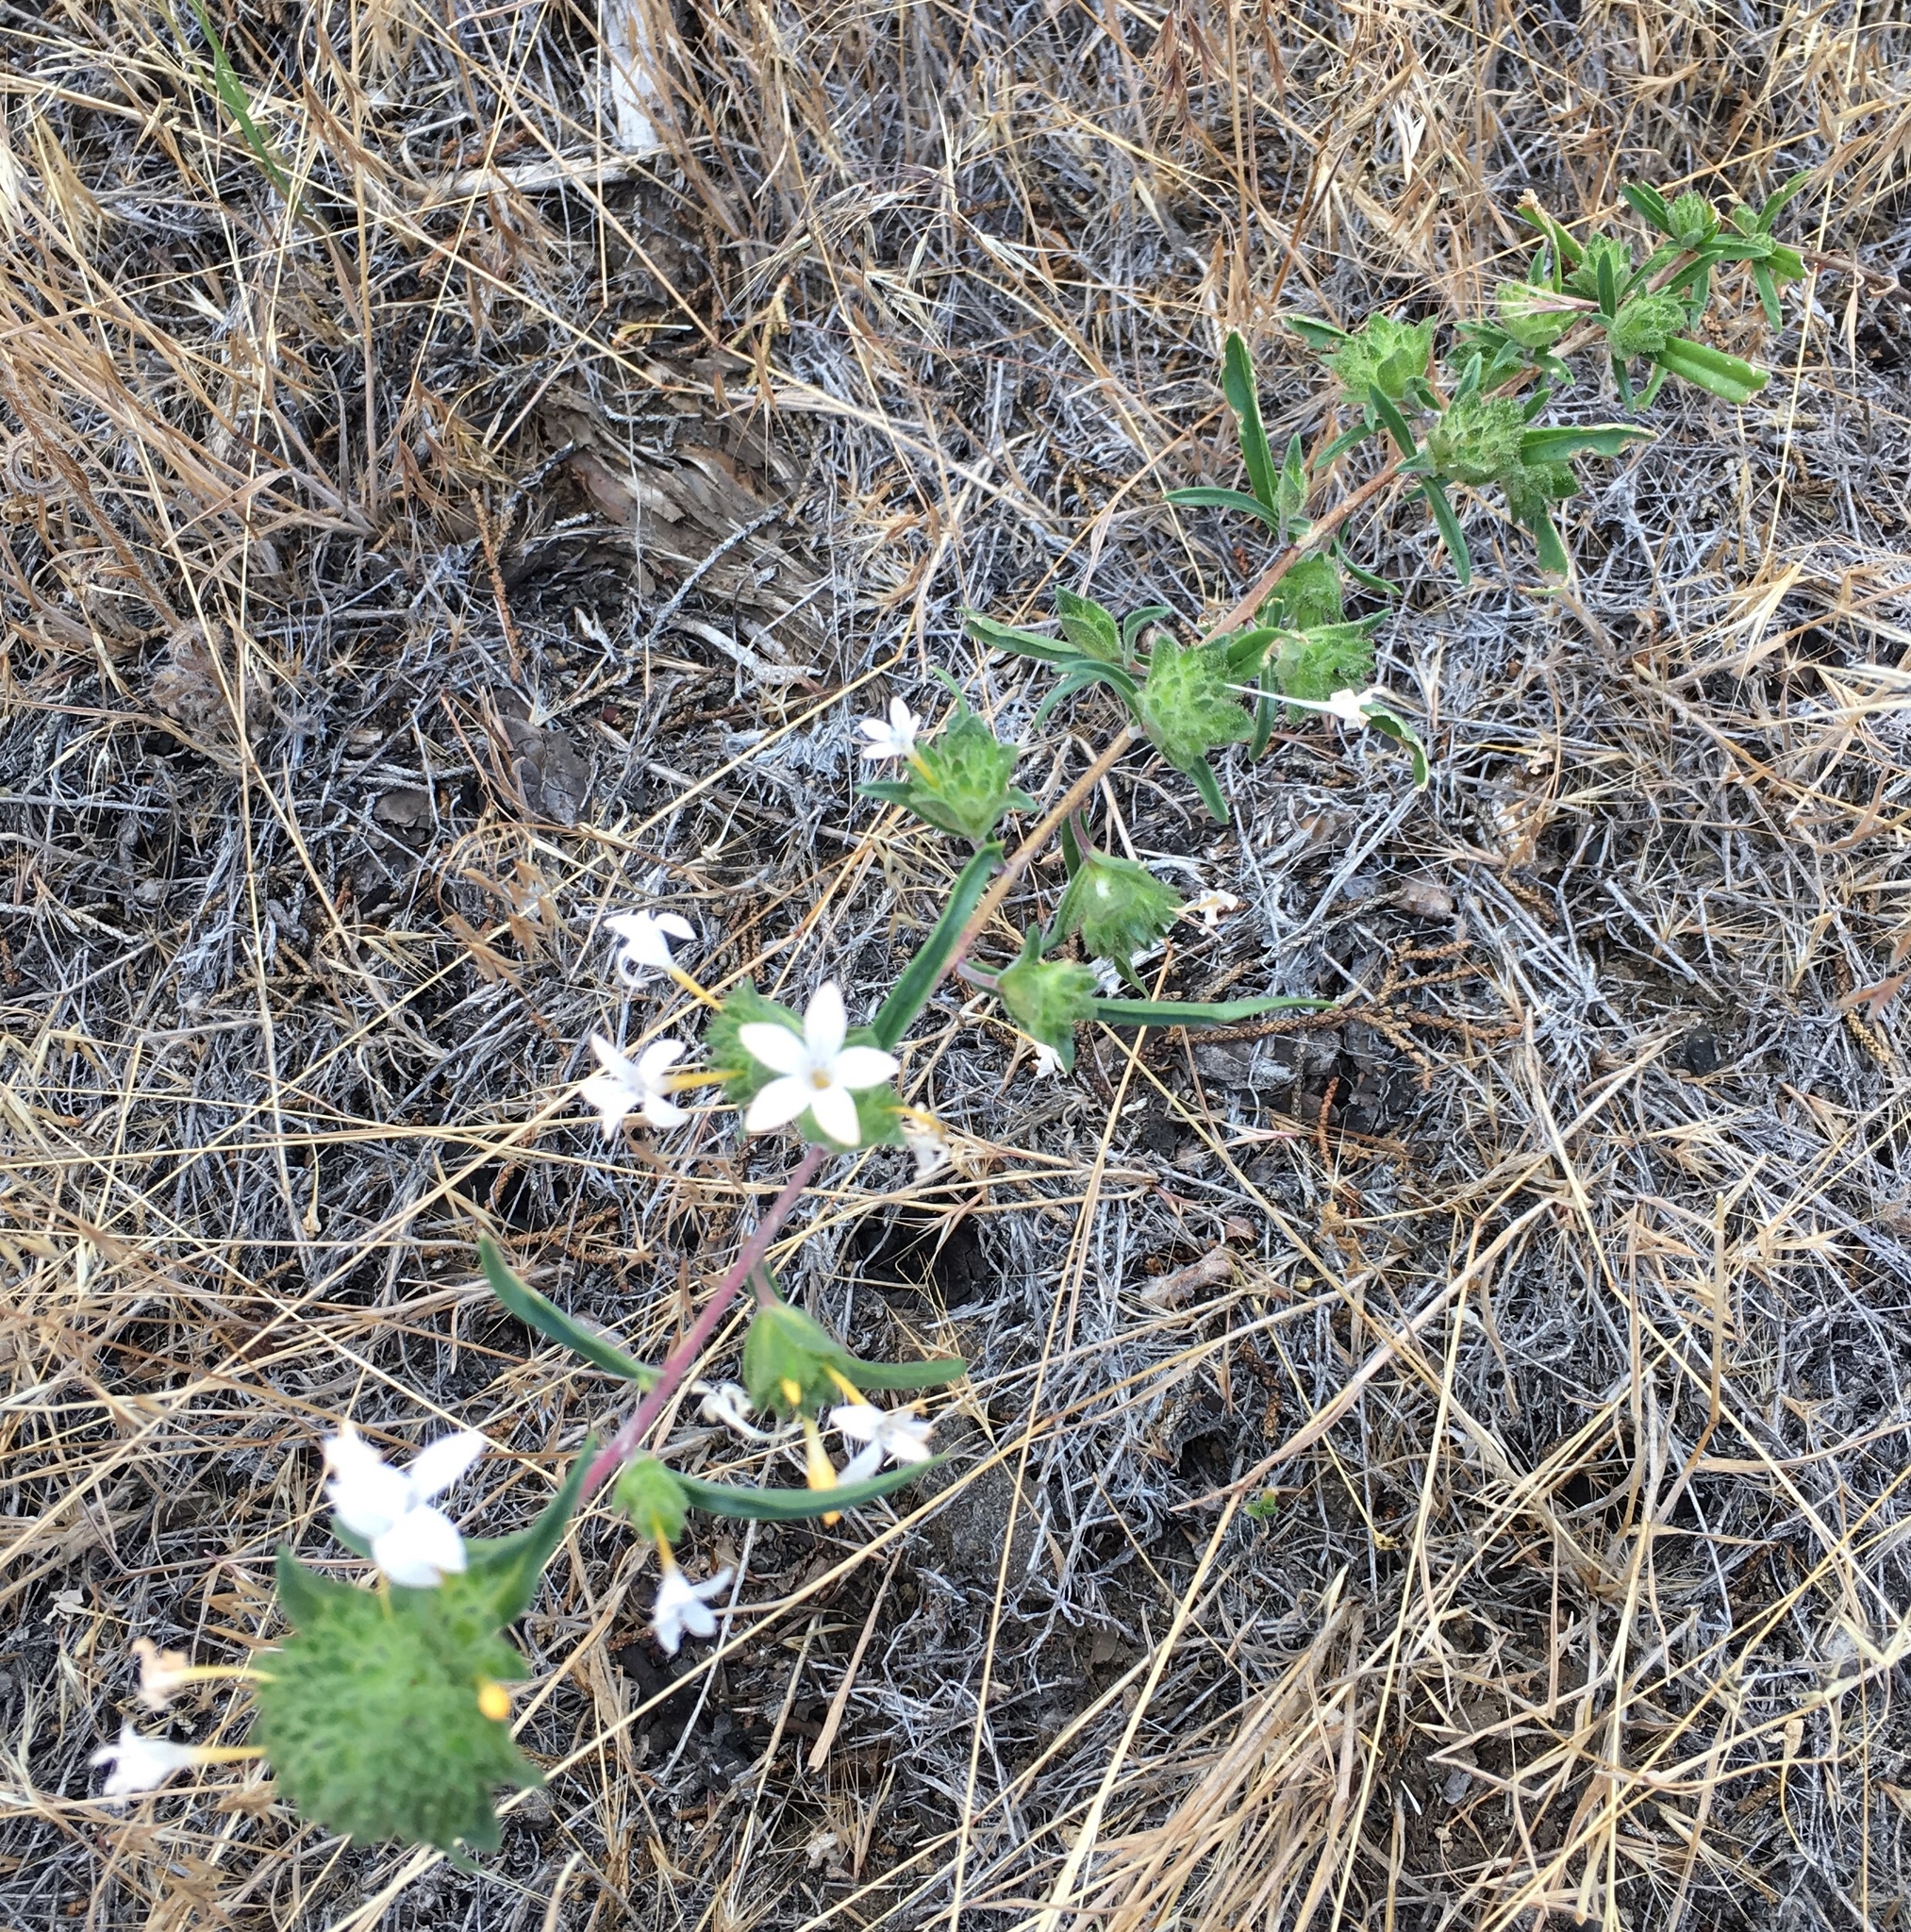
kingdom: Plantae
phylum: Tracheophyta
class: Magnoliopsida
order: Ericales
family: Polemoniaceae
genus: Collomia
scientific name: Collomia grandiflora
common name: California strawflower
